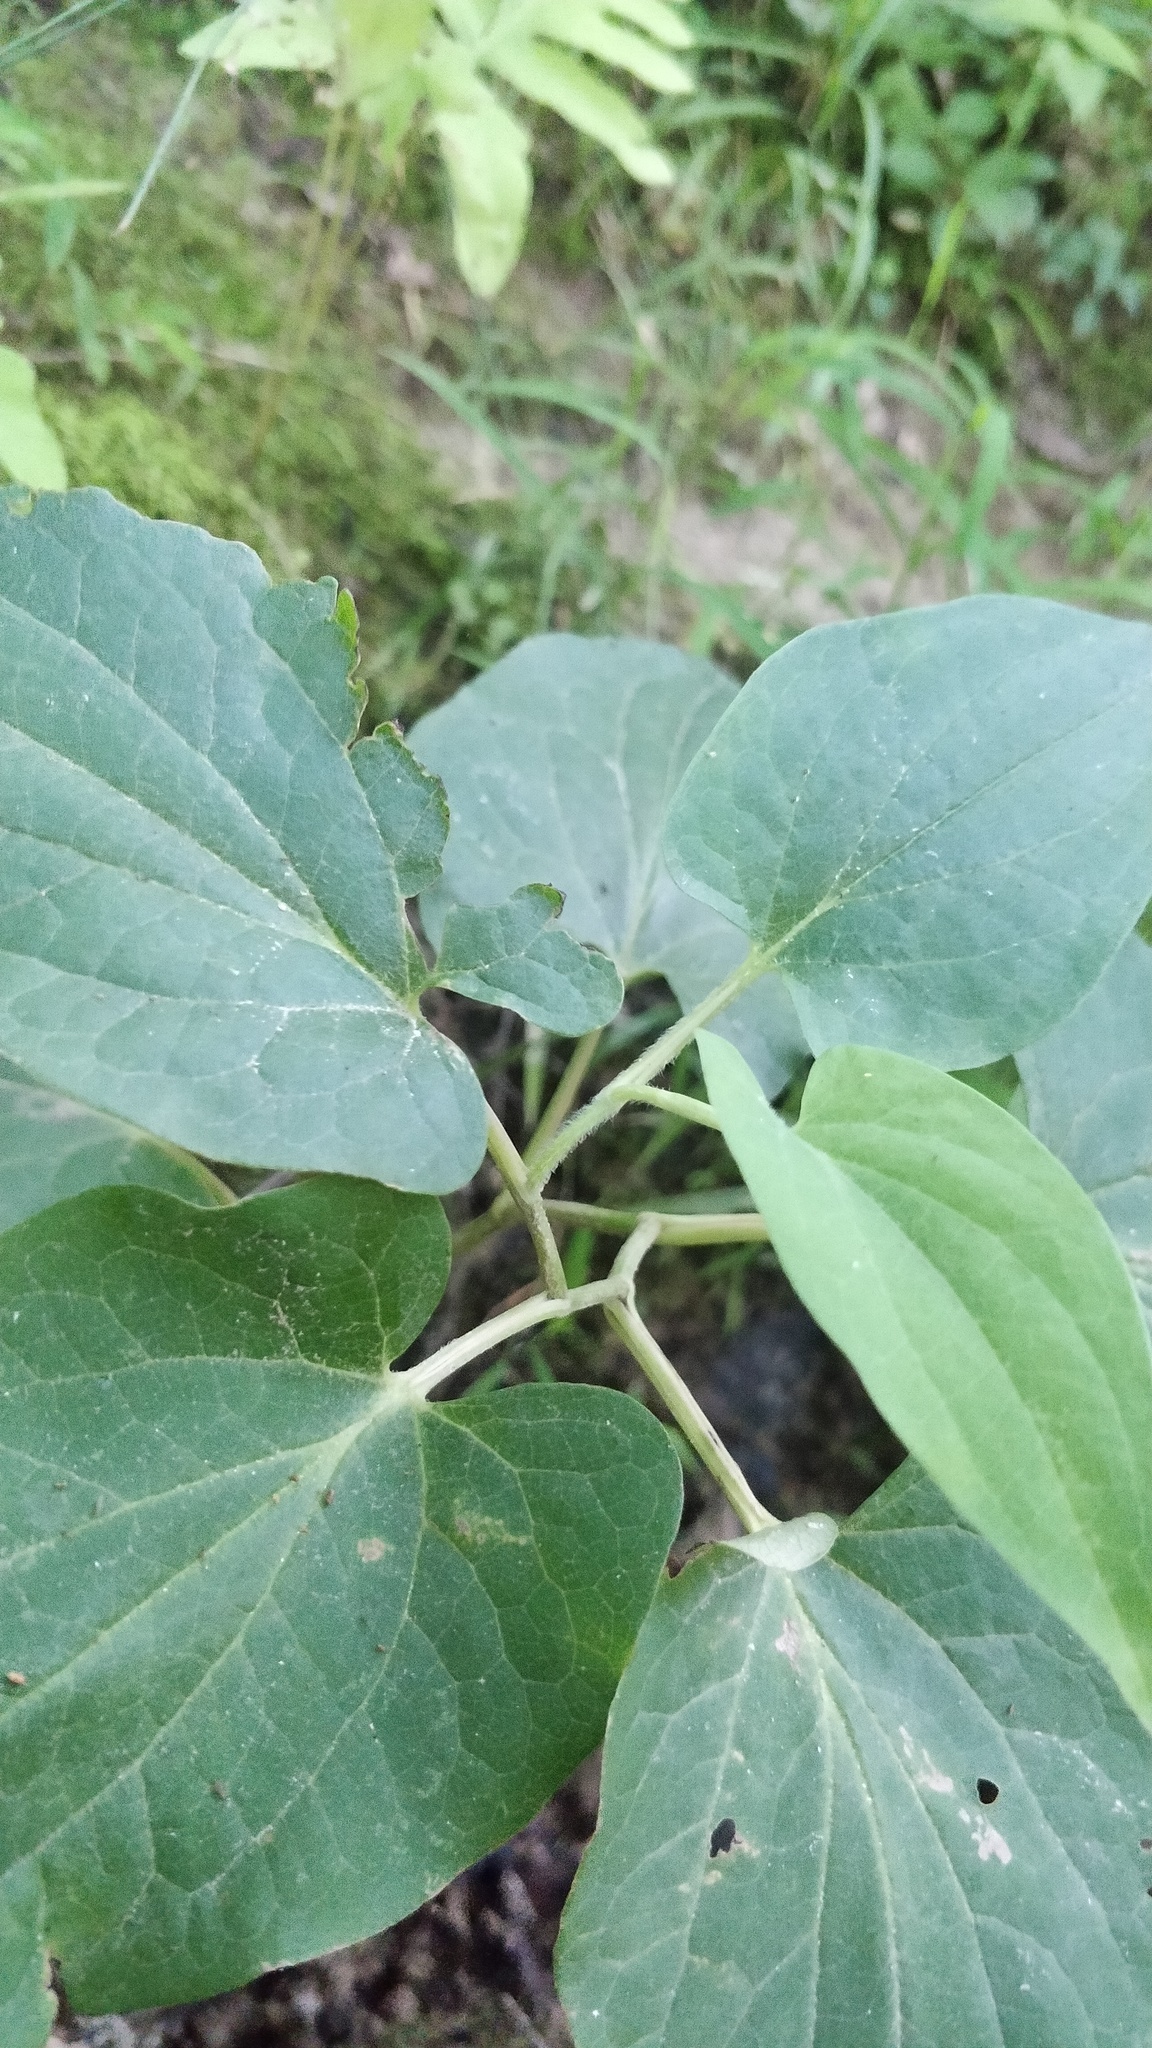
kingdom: Plantae
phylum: Tracheophyta
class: Magnoliopsida
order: Piperales
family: Saururaceae
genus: Saururus
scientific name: Saururus cernuus
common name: Lizard's-tail
